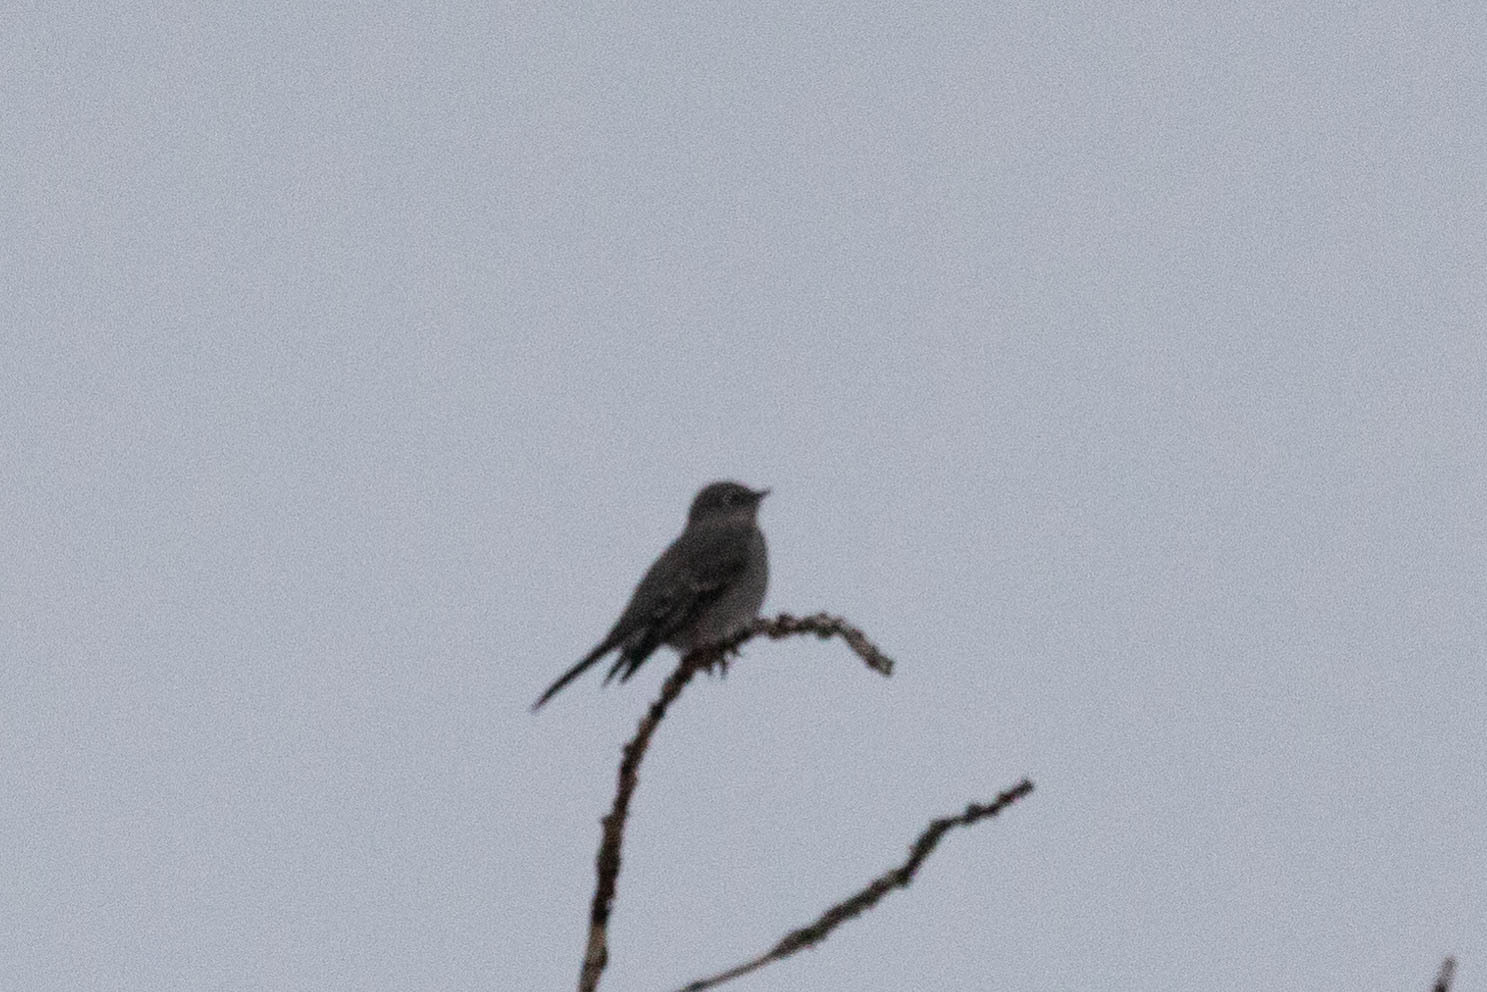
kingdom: Animalia
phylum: Chordata
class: Aves
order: Passeriformes
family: Turdidae
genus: Myadestes
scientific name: Myadestes townsendi
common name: Townsend's solitaire
